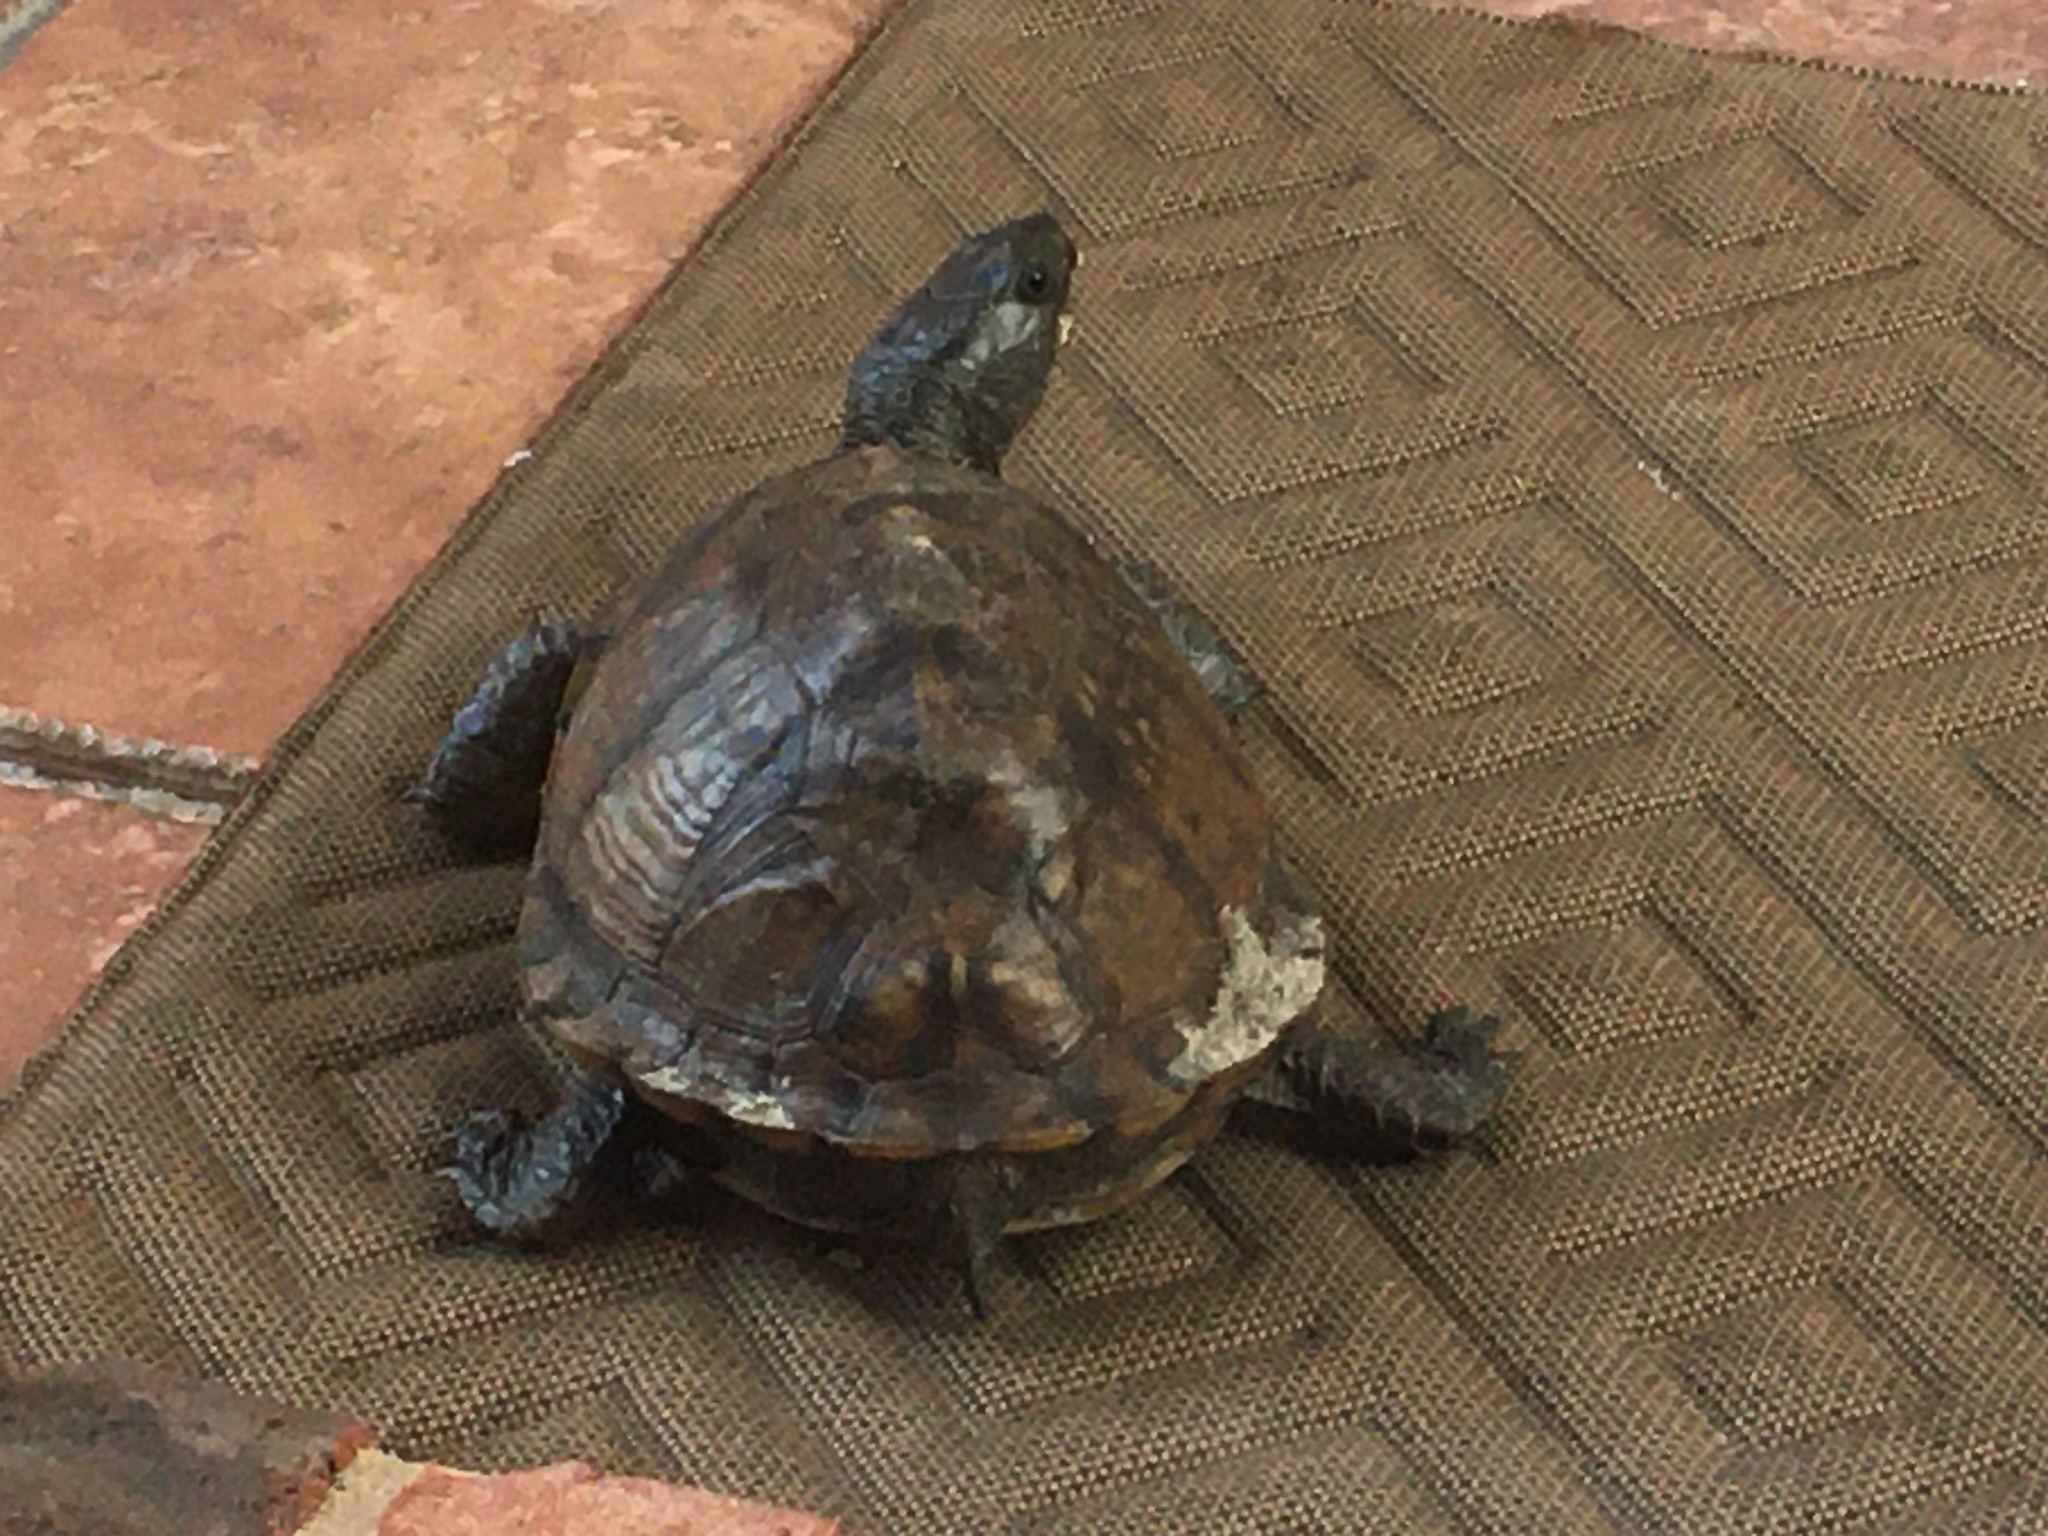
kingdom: Animalia
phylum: Chordata
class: Testudines
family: Emydidae
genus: Terrapene
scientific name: Terrapene carolina
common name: Common box turtle
